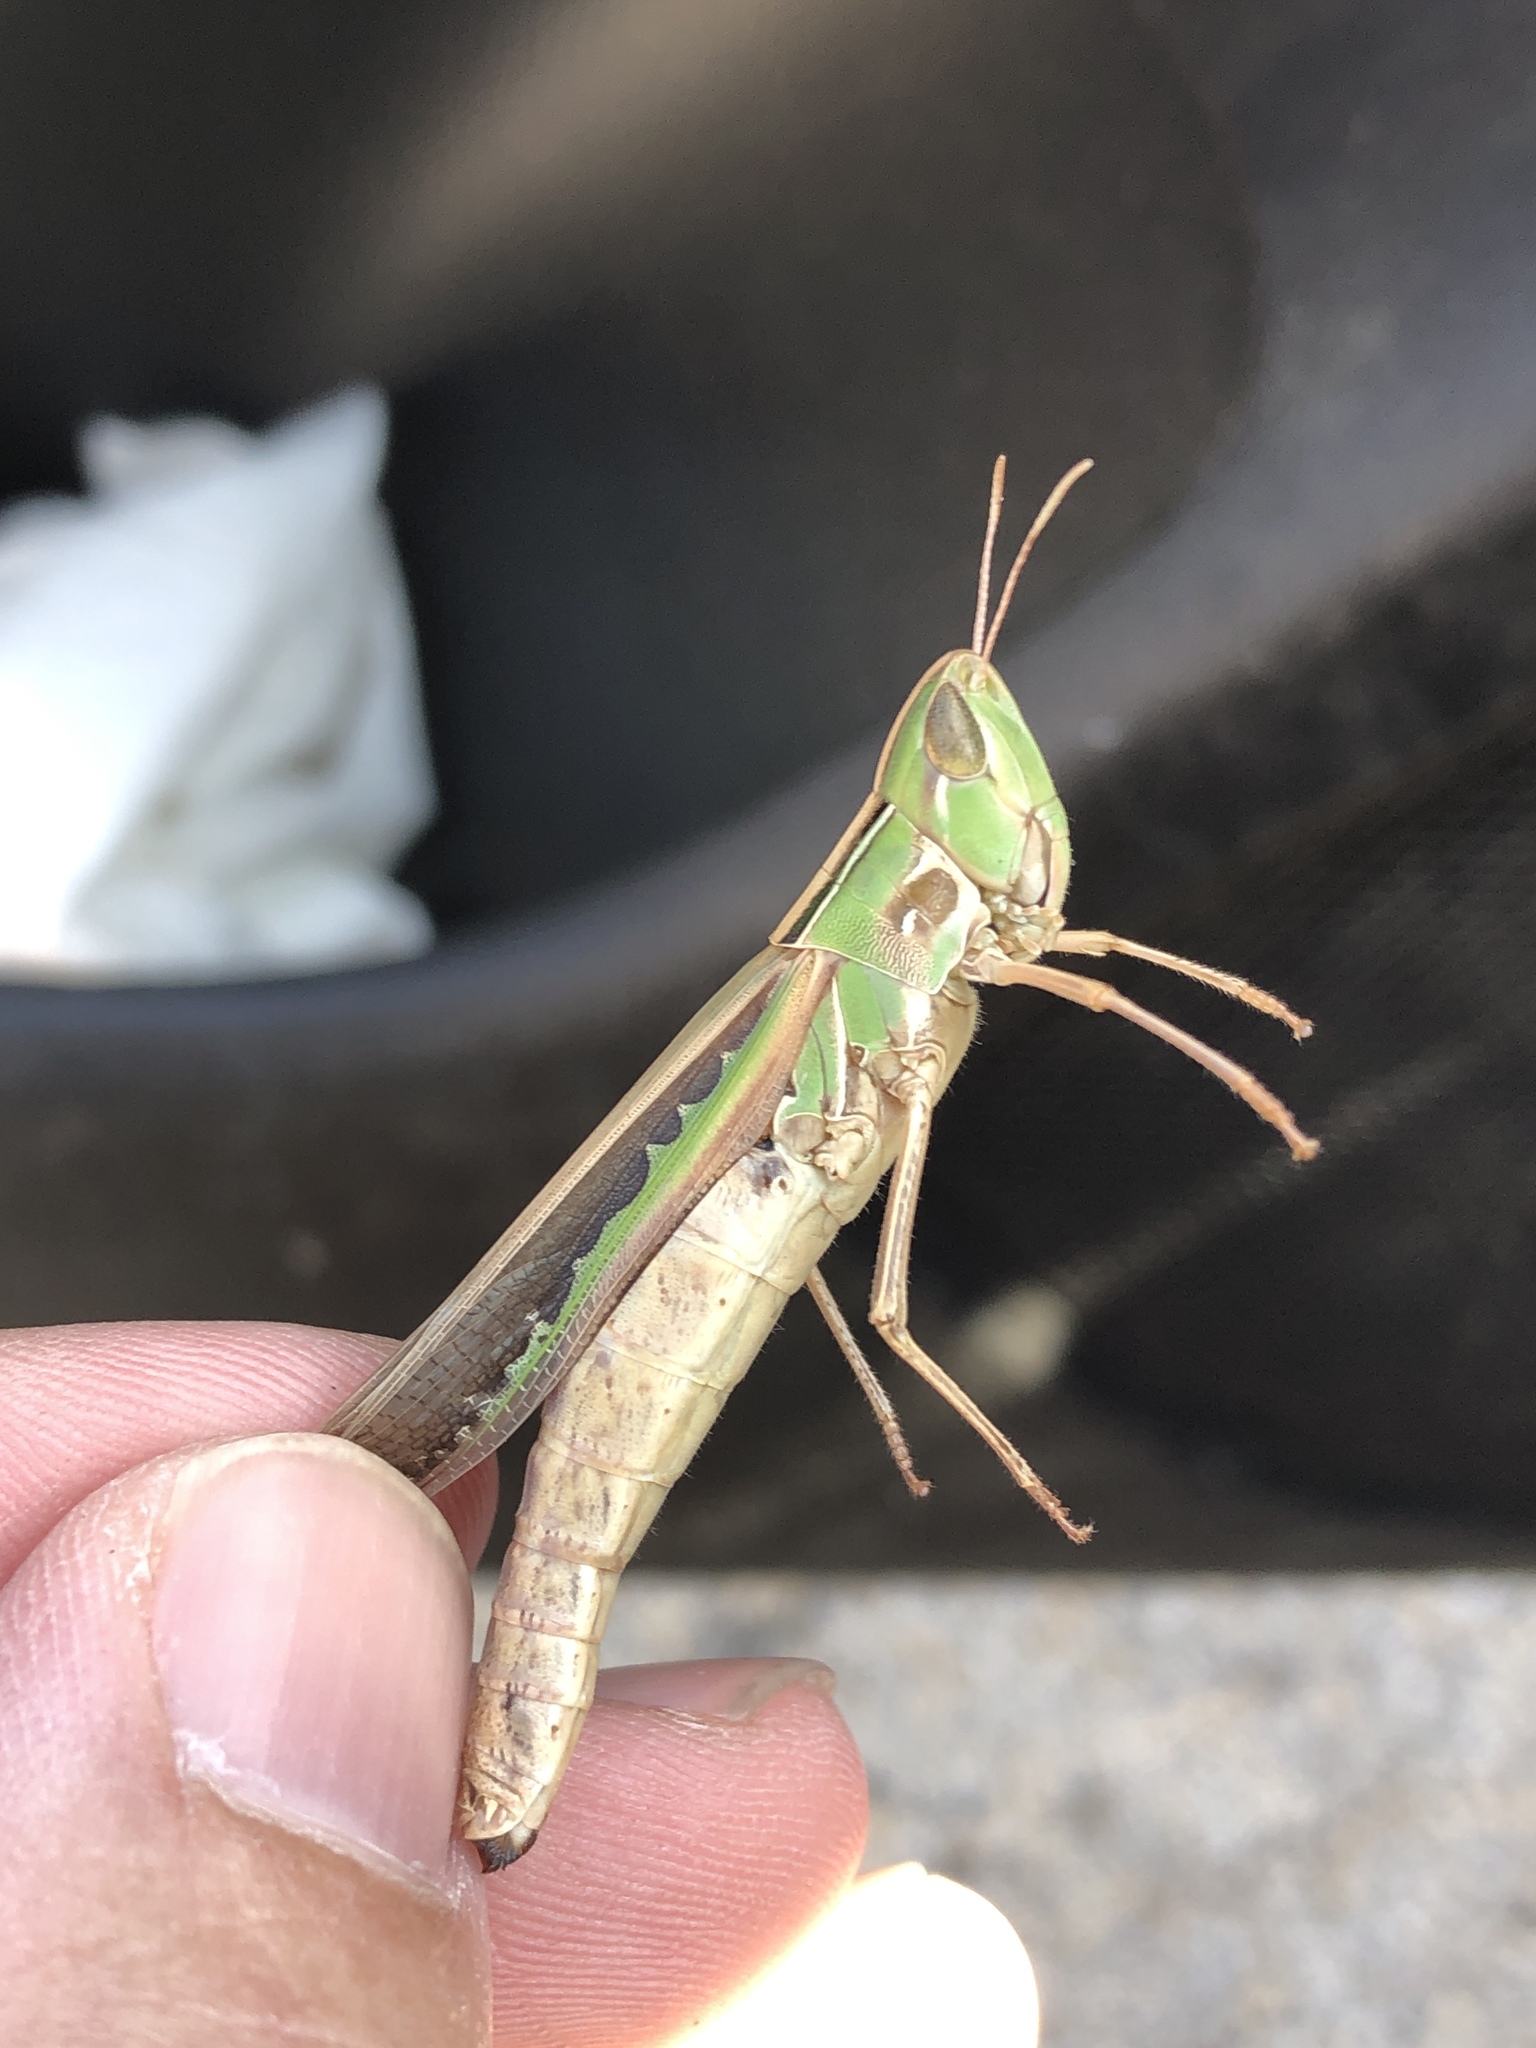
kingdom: Animalia
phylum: Arthropoda
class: Insecta
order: Orthoptera
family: Acrididae
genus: Syrbula
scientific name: Syrbula admirabilis
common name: Handsome grasshopper
